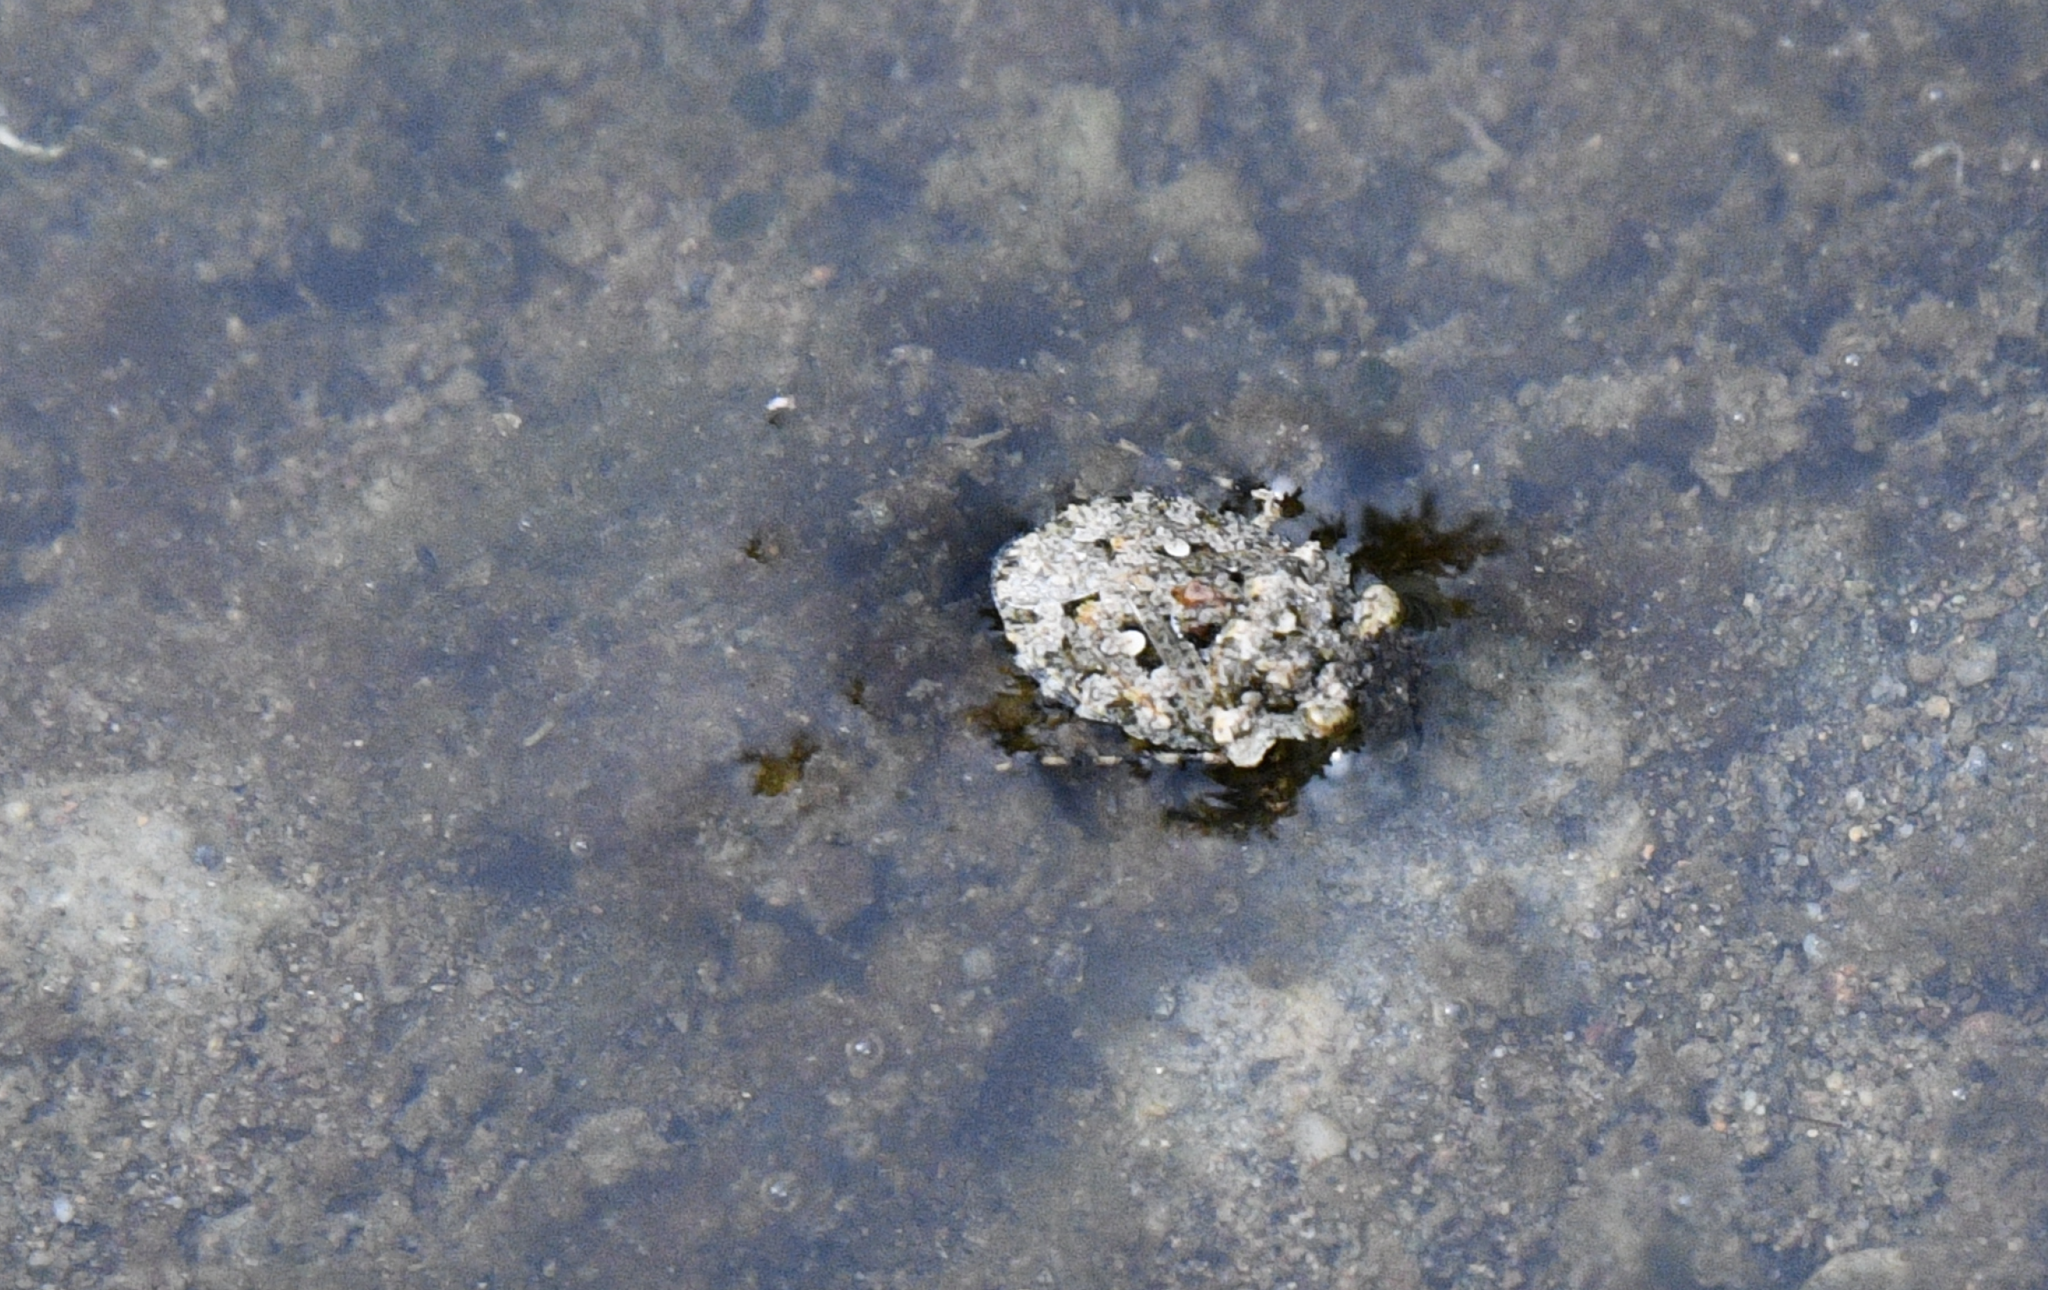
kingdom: Animalia
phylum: Arthropoda
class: Insecta
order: Hemiptera
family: Gelastocoridae
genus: Gelastocoris
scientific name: Gelastocoris oculatus
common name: Toad bug
